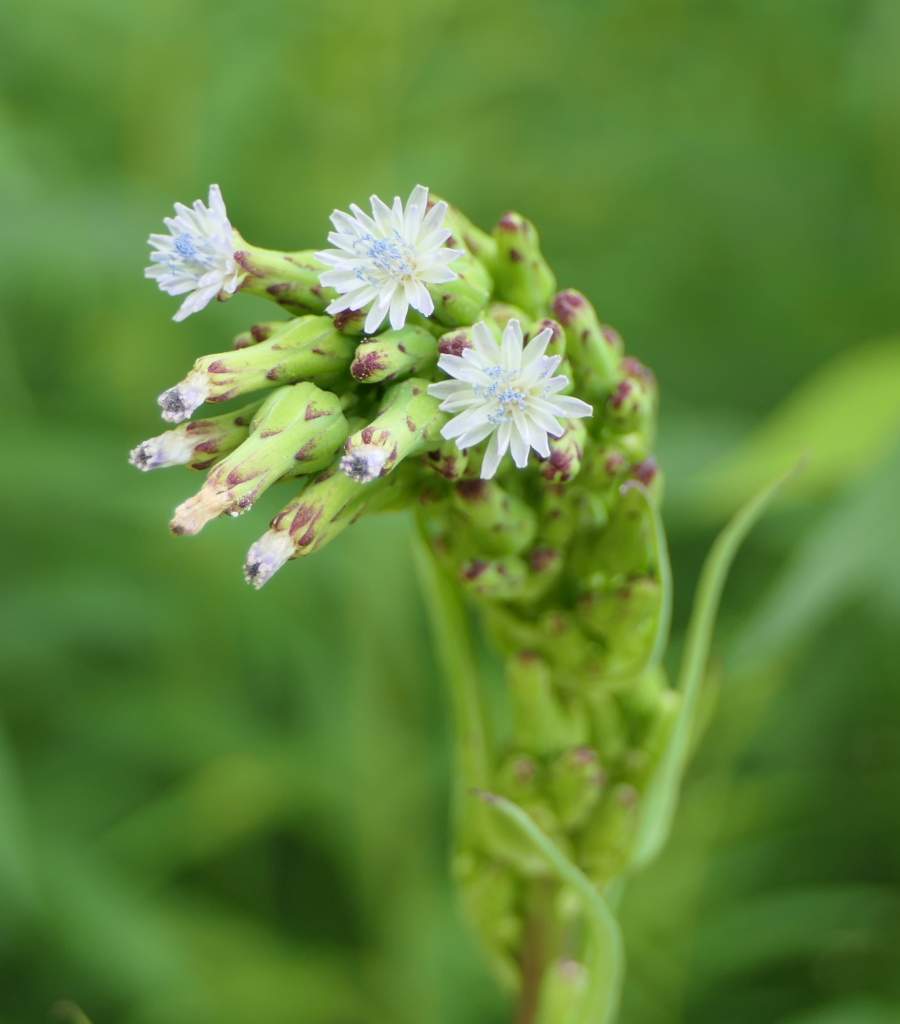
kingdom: Plantae
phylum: Tracheophyta
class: Magnoliopsida
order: Asterales
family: Asteraceae
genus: Lactuca
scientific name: Lactuca biennis
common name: Blue wood lettuce
